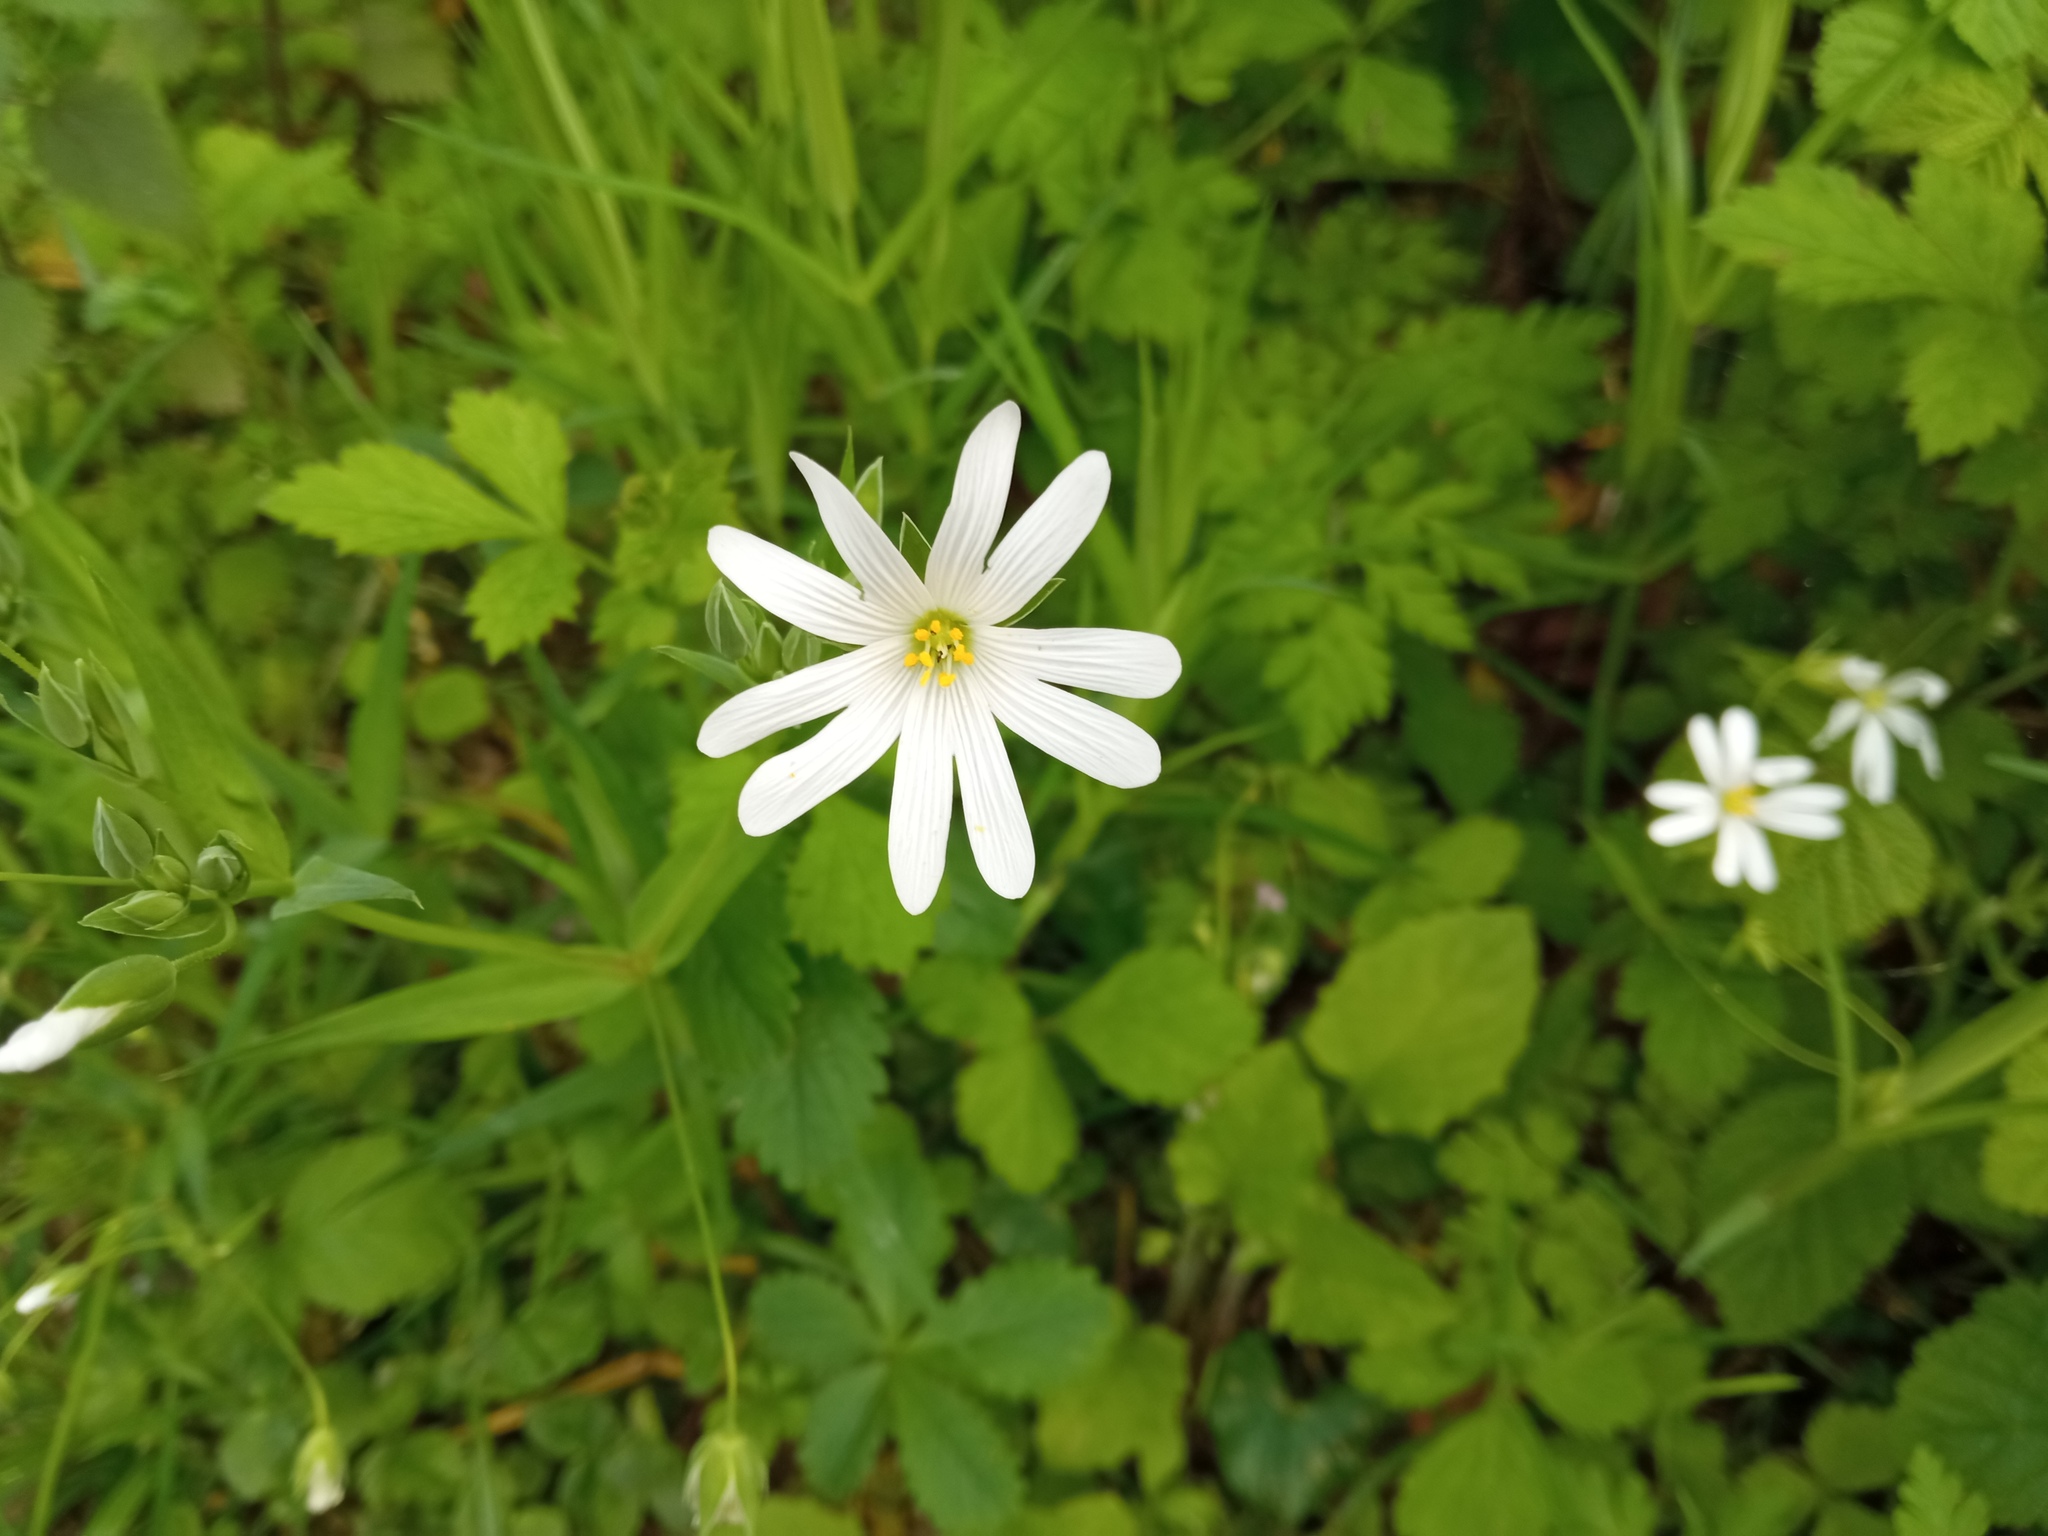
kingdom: Plantae
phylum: Tracheophyta
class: Magnoliopsida
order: Caryophyllales
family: Caryophyllaceae
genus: Rabelera
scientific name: Rabelera holostea
